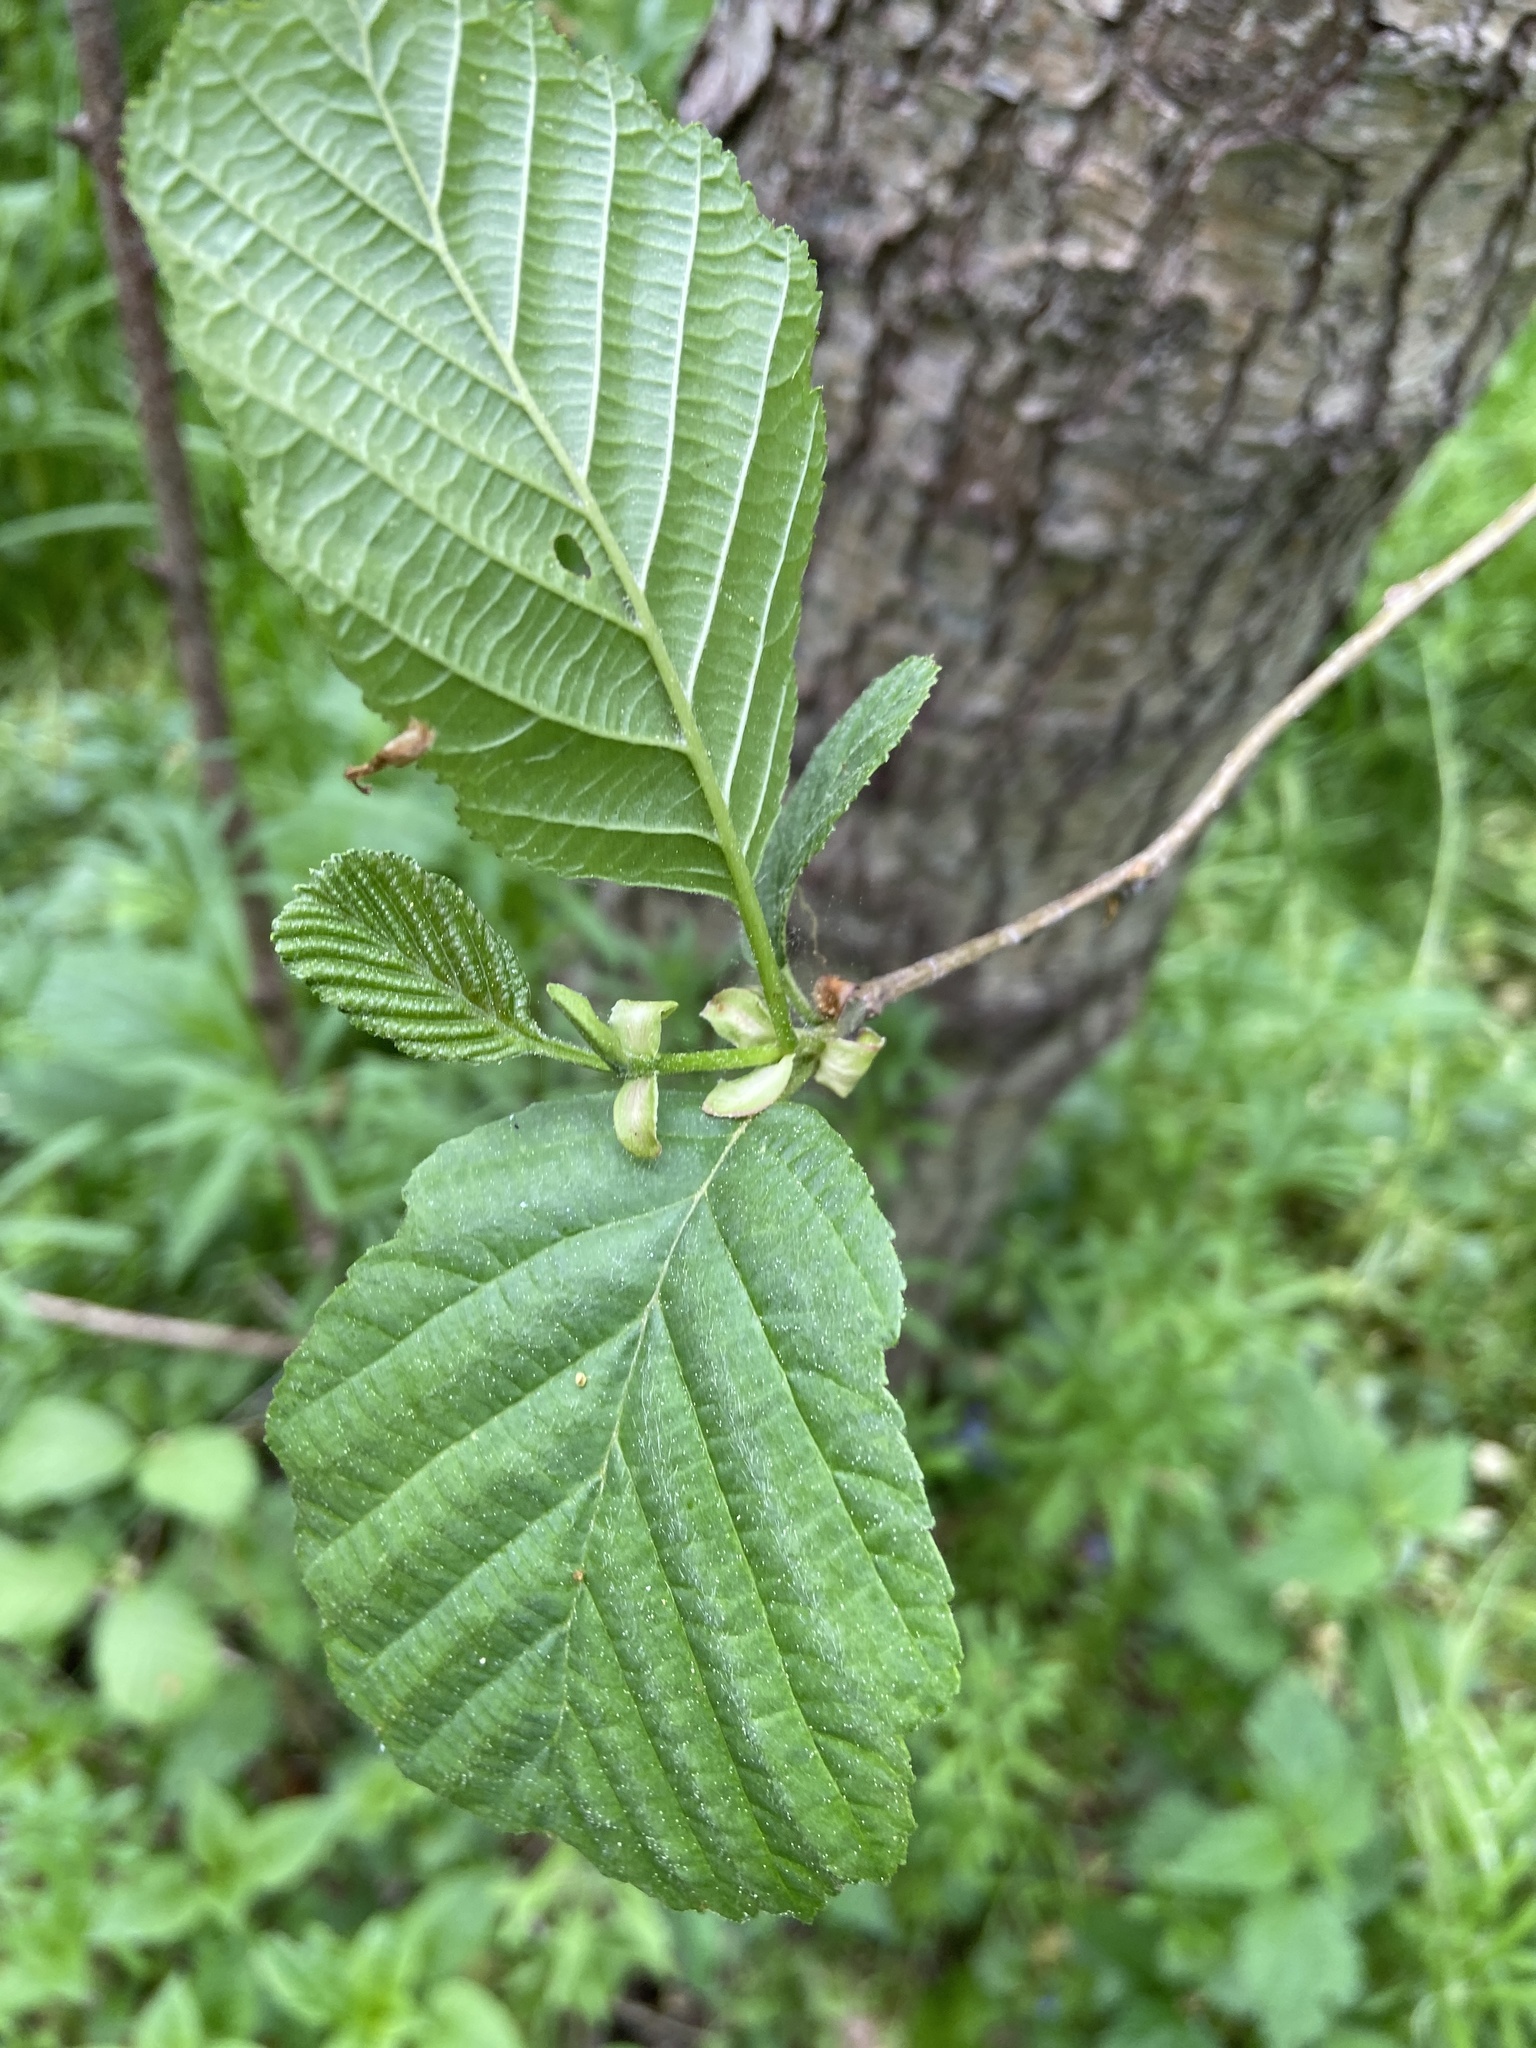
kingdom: Plantae
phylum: Tracheophyta
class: Magnoliopsida
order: Fagales
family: Betulaceae
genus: Alnus
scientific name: Alnus glutinosa
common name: Black alder
